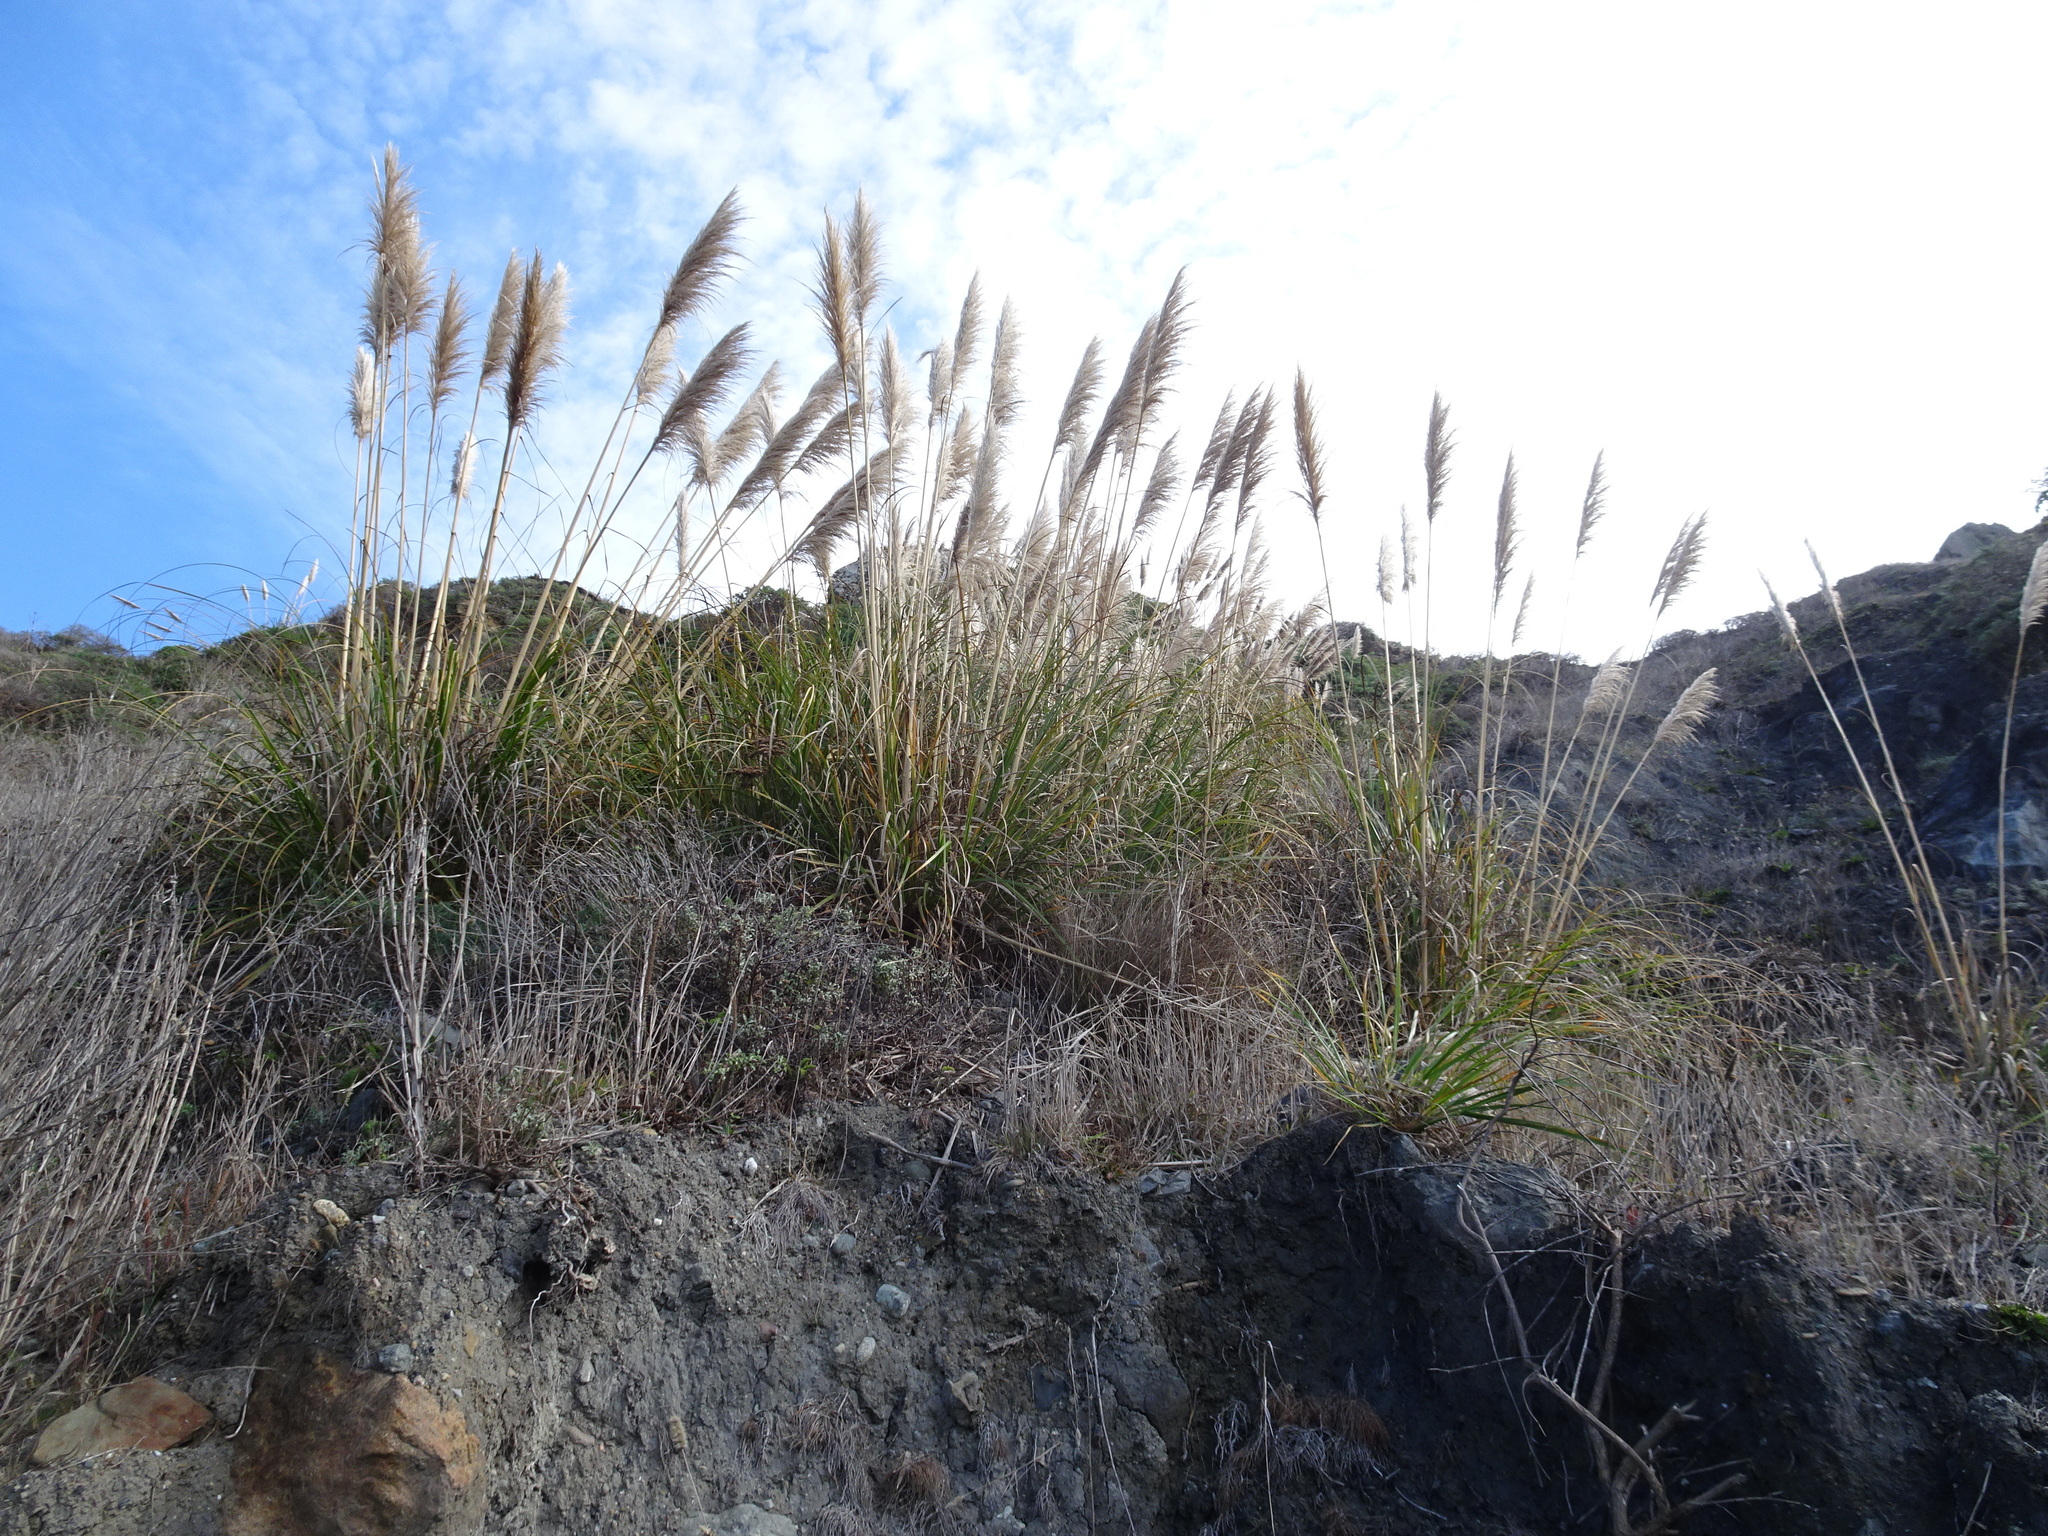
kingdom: Plantae
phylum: Tracheophyta
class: Liliopsida
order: Poales
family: Poaceae
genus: Cortaderia
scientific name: Cortaderia jubata
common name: Purple pampas grass
